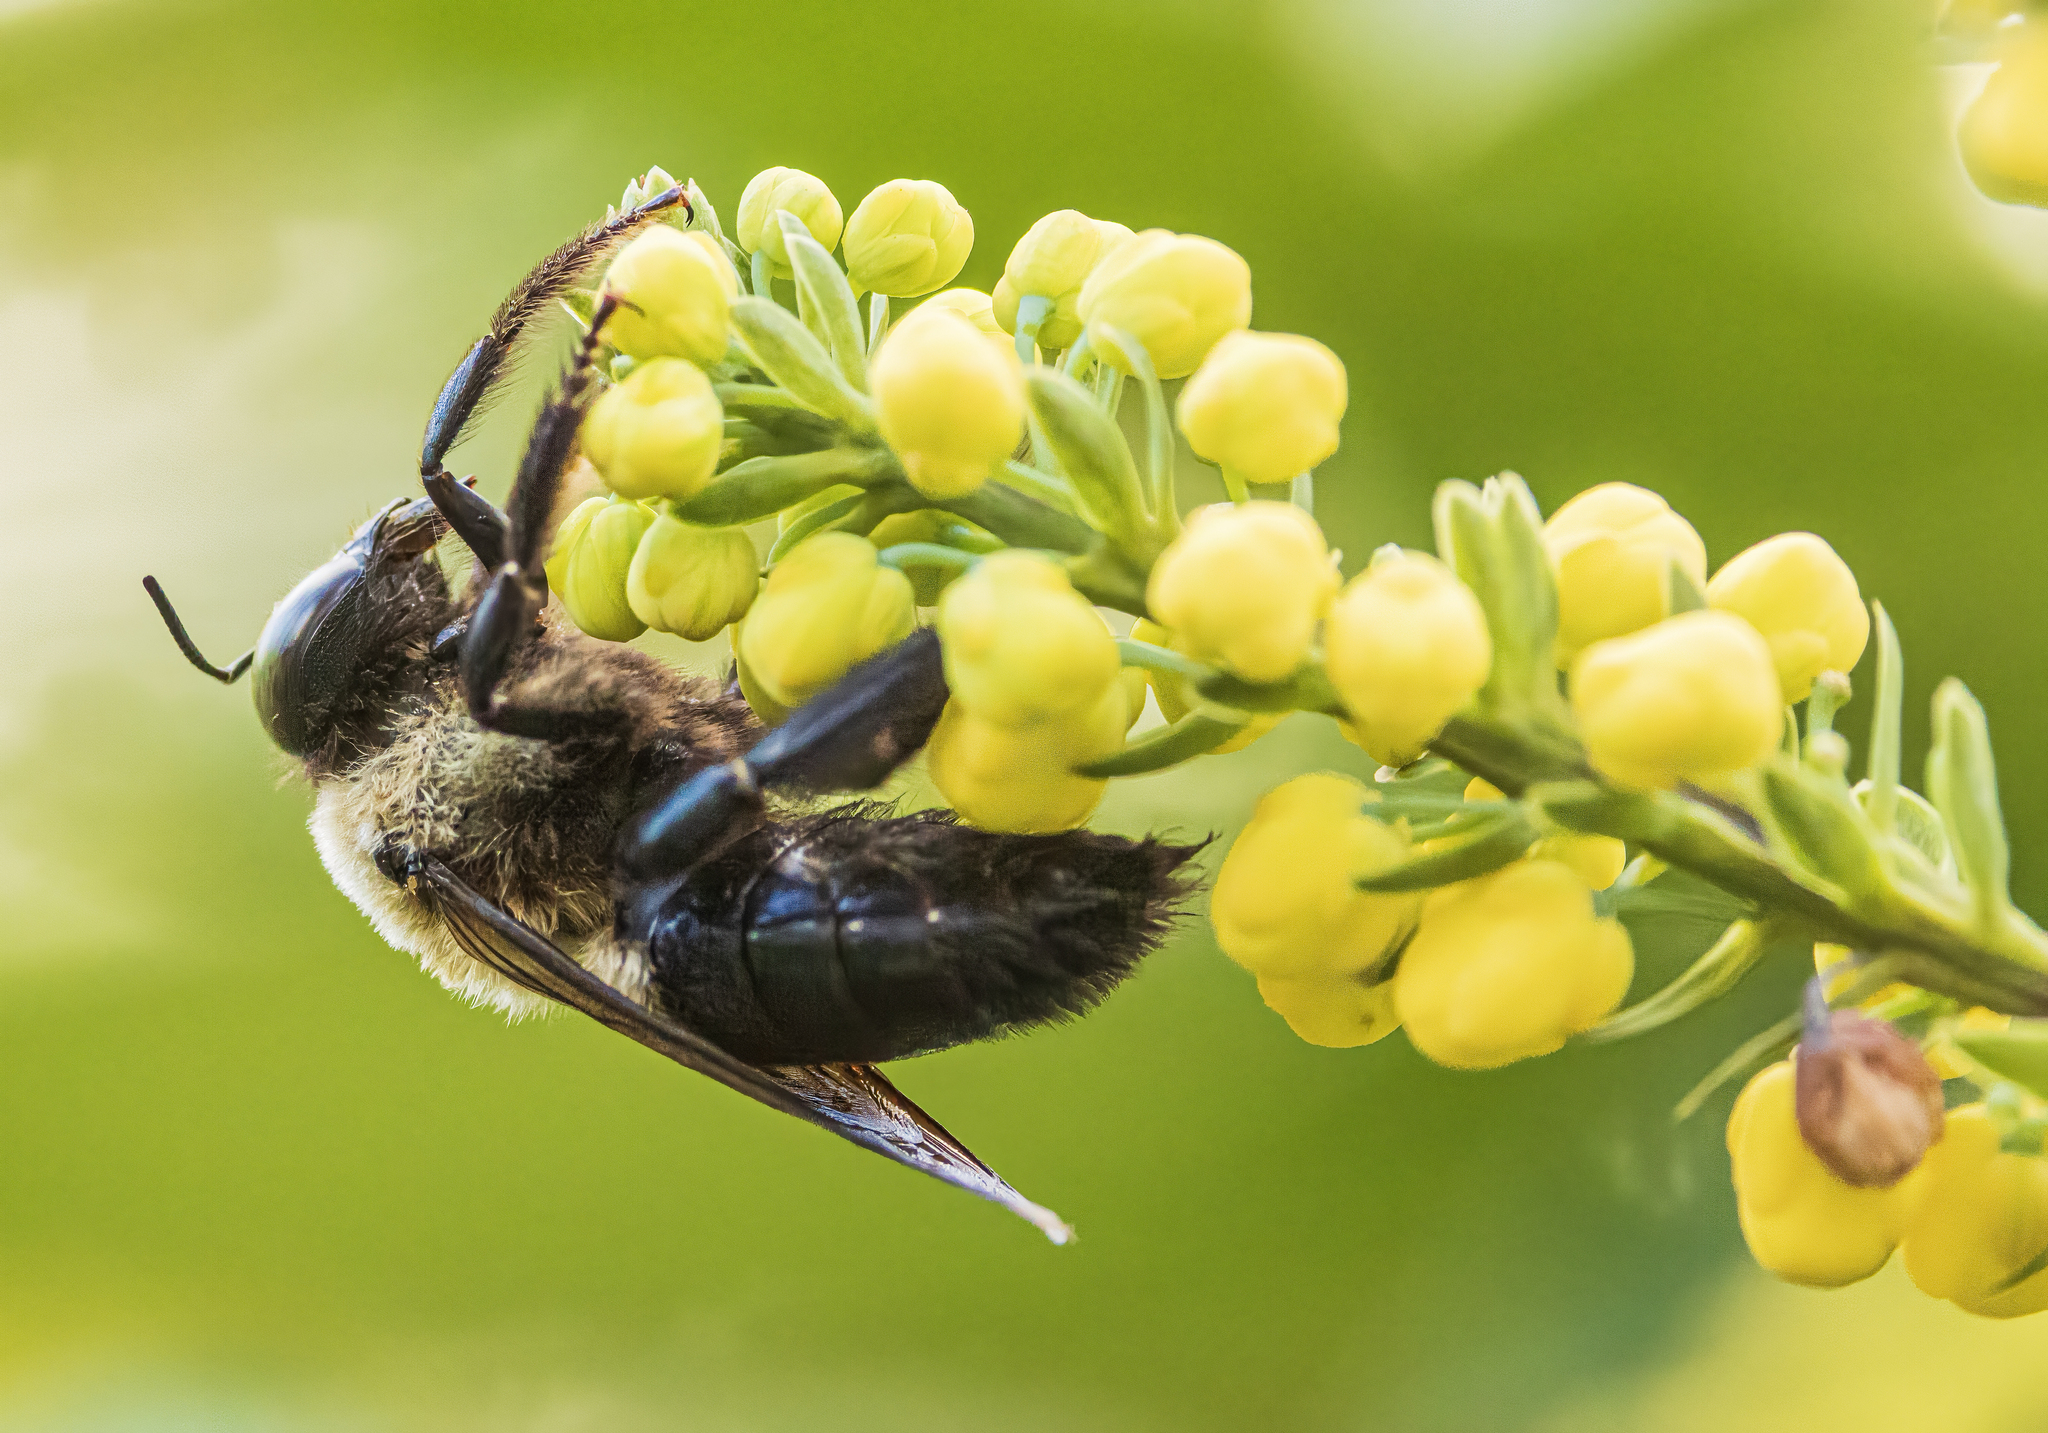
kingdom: Animalia
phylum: Arthropoda
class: Insecta
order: Hymenoptera
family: Apidae
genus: Xylocopa
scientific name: Xylocopa virginica
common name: Carpenter bee
